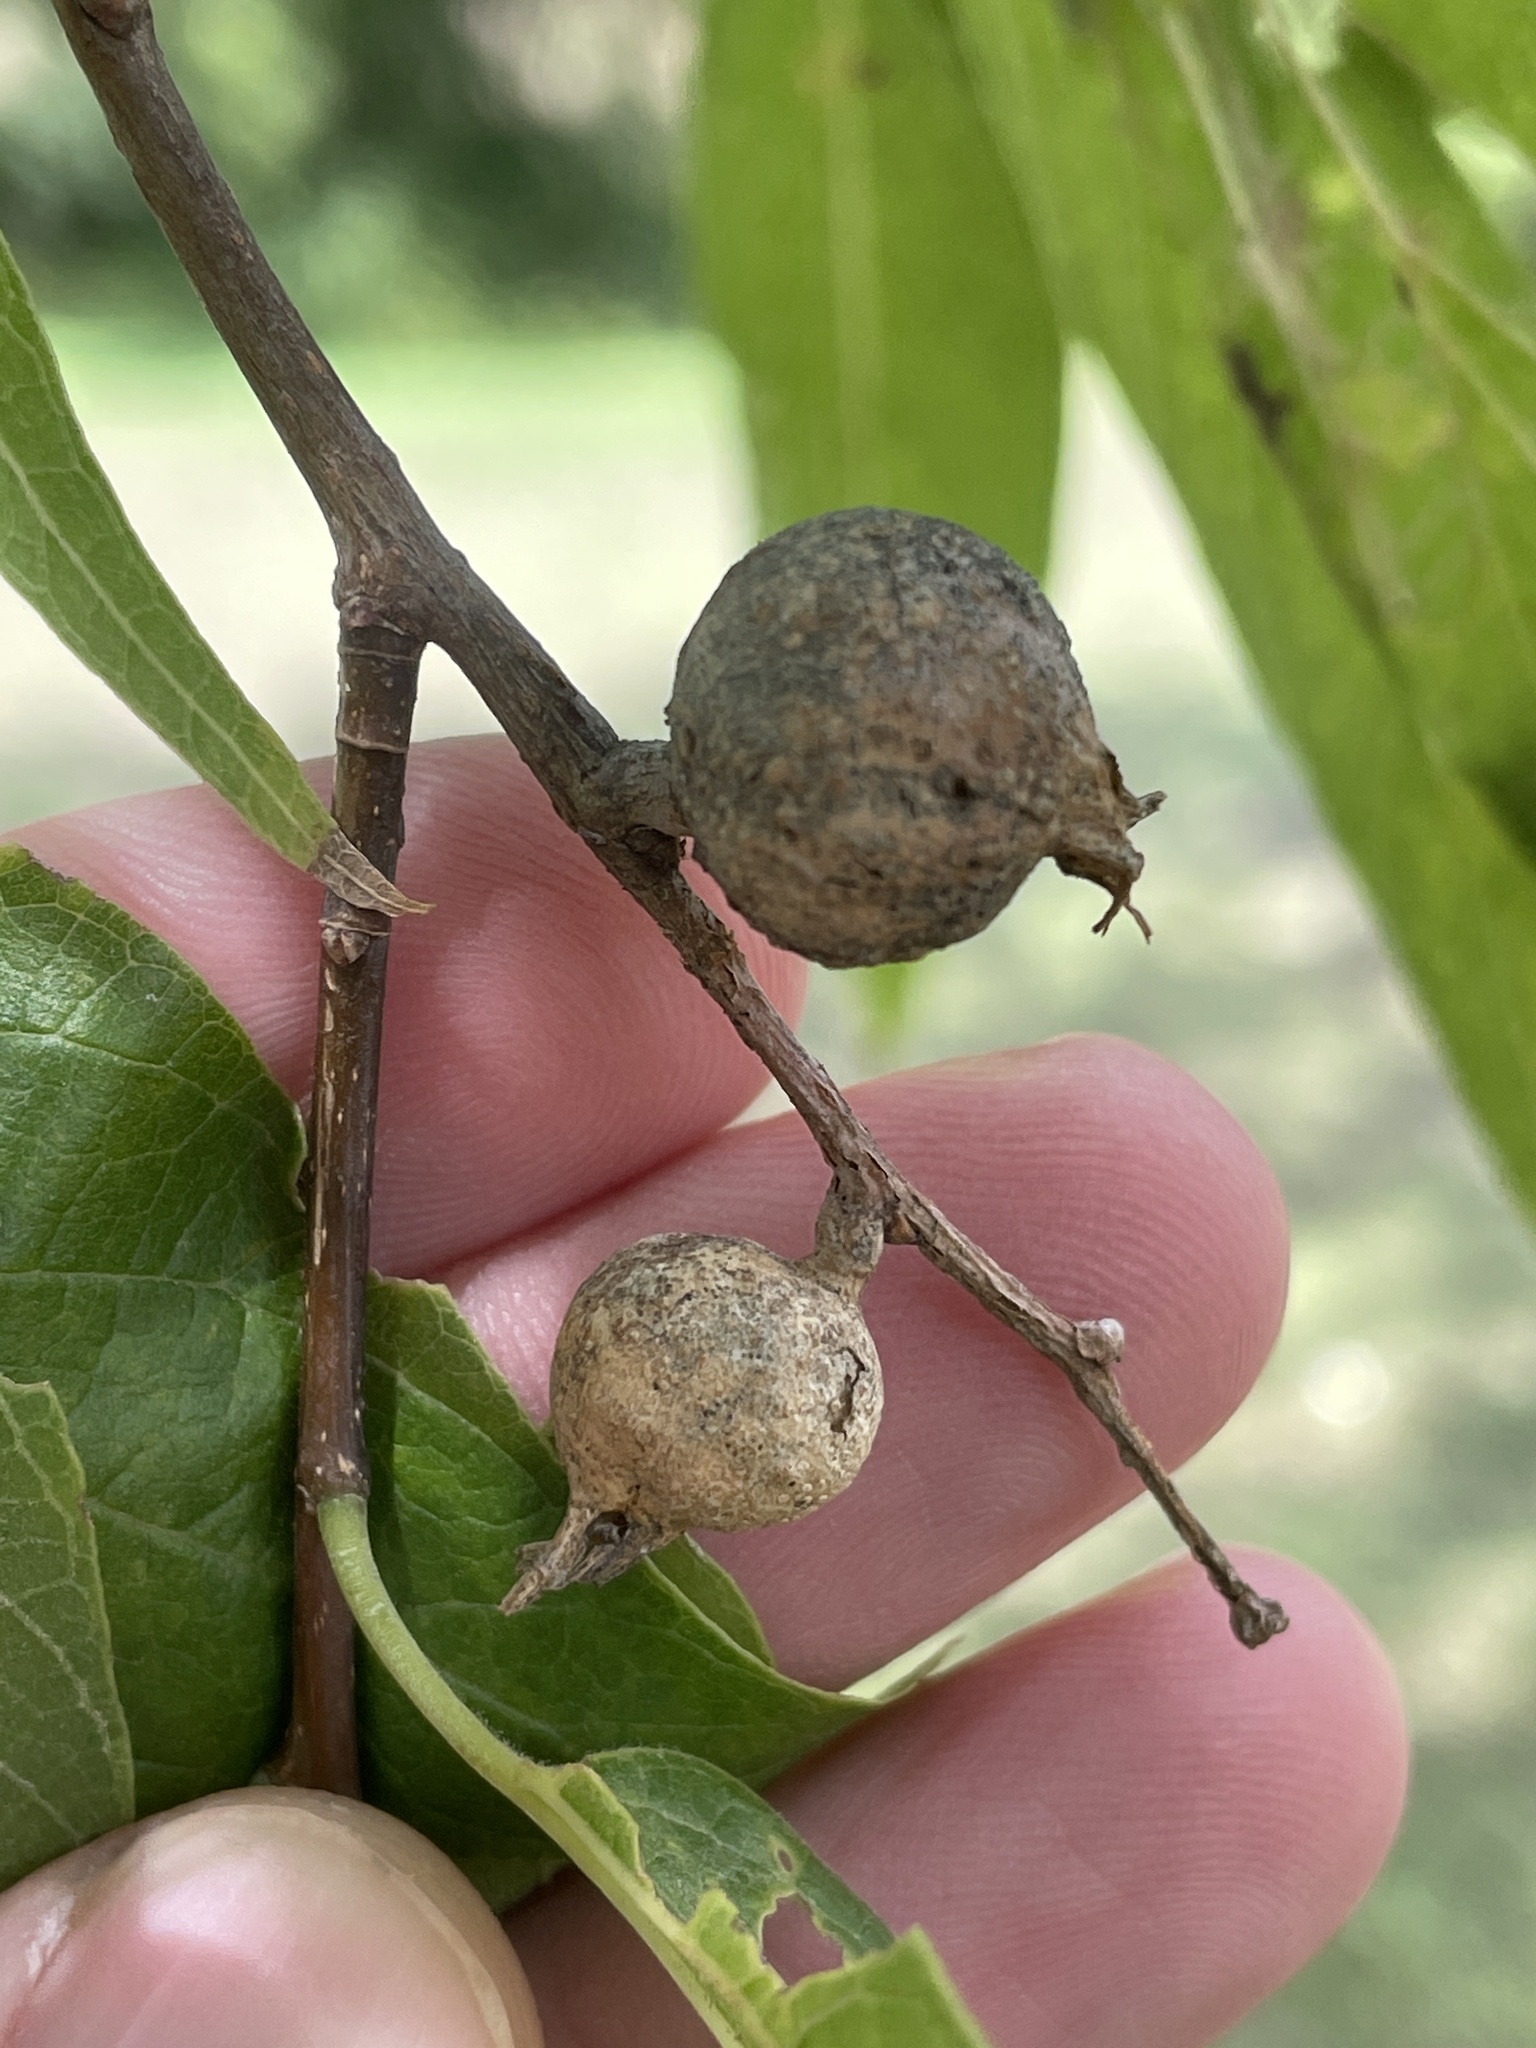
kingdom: Animalia
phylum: Arthropoda
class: Insecta
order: Hemiptera
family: Aphalaridae
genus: Pachypsylla
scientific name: Pachypsylla venusta
